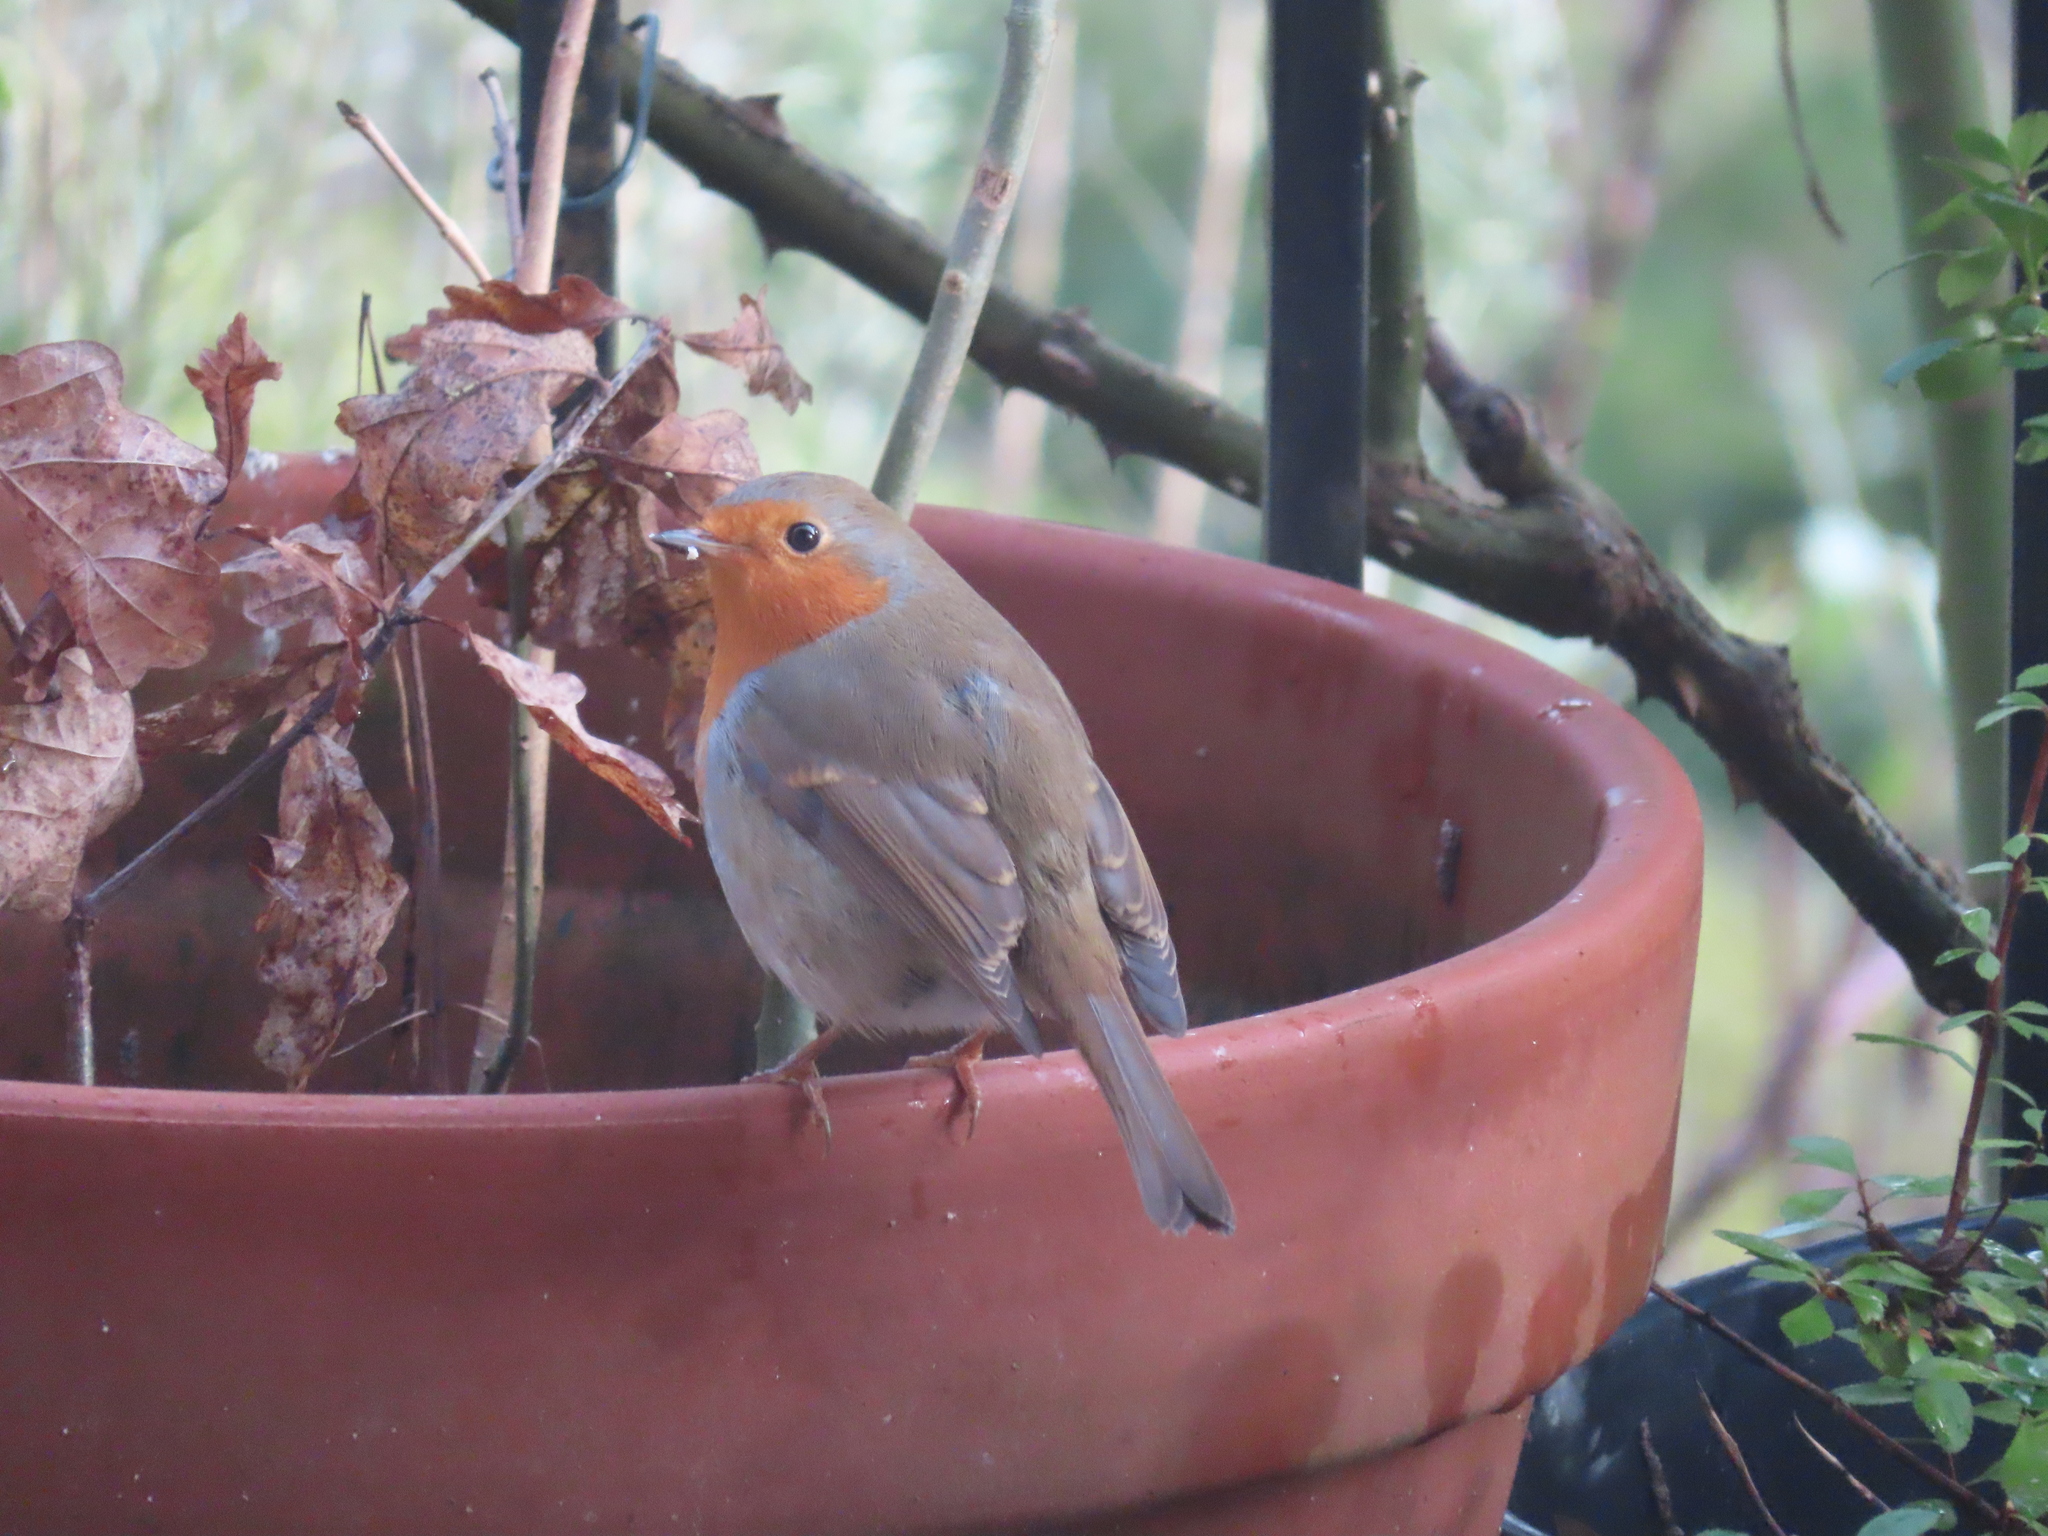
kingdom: Animalia
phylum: Chordata
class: Aves
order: Passeriformes
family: Muscicapidae
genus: Erithacus
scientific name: Erithacus rubecula
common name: European robin
